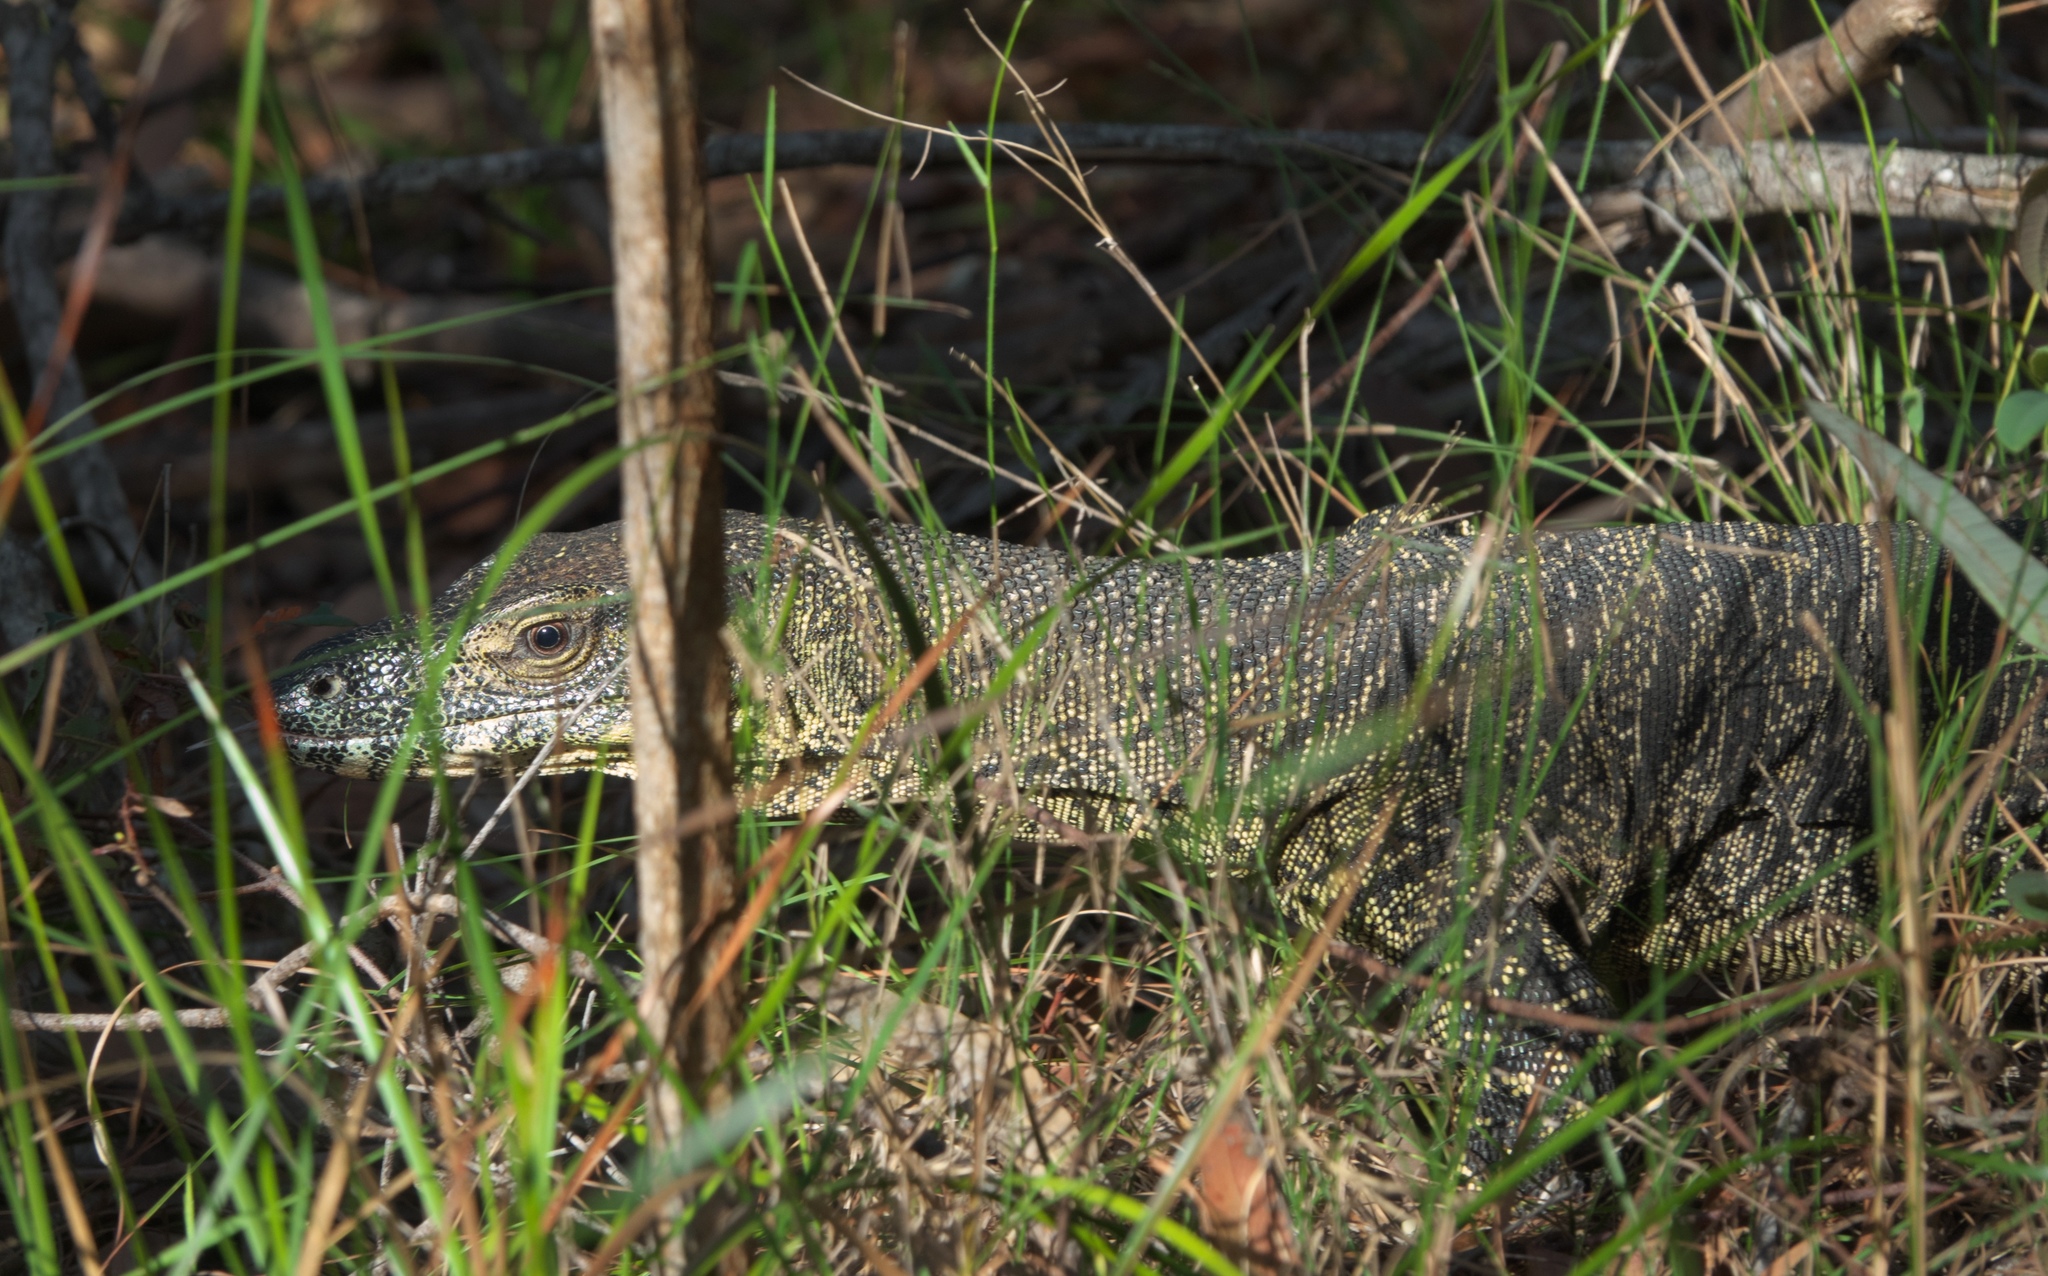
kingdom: Animalia
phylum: Chordata
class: Squamata
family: Varanidae
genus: Varanus
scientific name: Varanus varius
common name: Lace monitor
